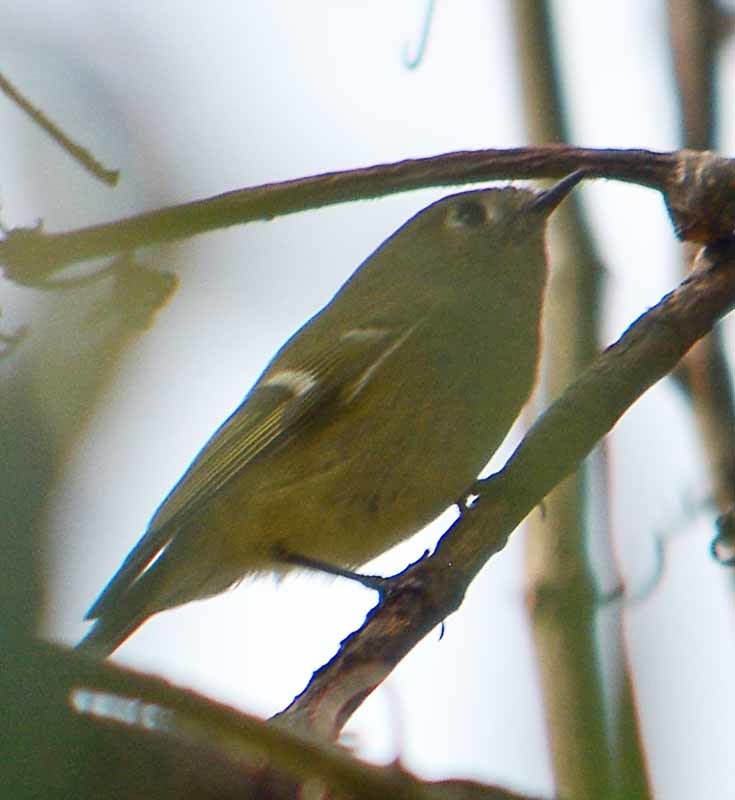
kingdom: Animalia
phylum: Chordata
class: Aves
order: Passeriformes
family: Regulidae
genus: Regulus
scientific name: Regulus calendula
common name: Ruby-crowned kinglet
